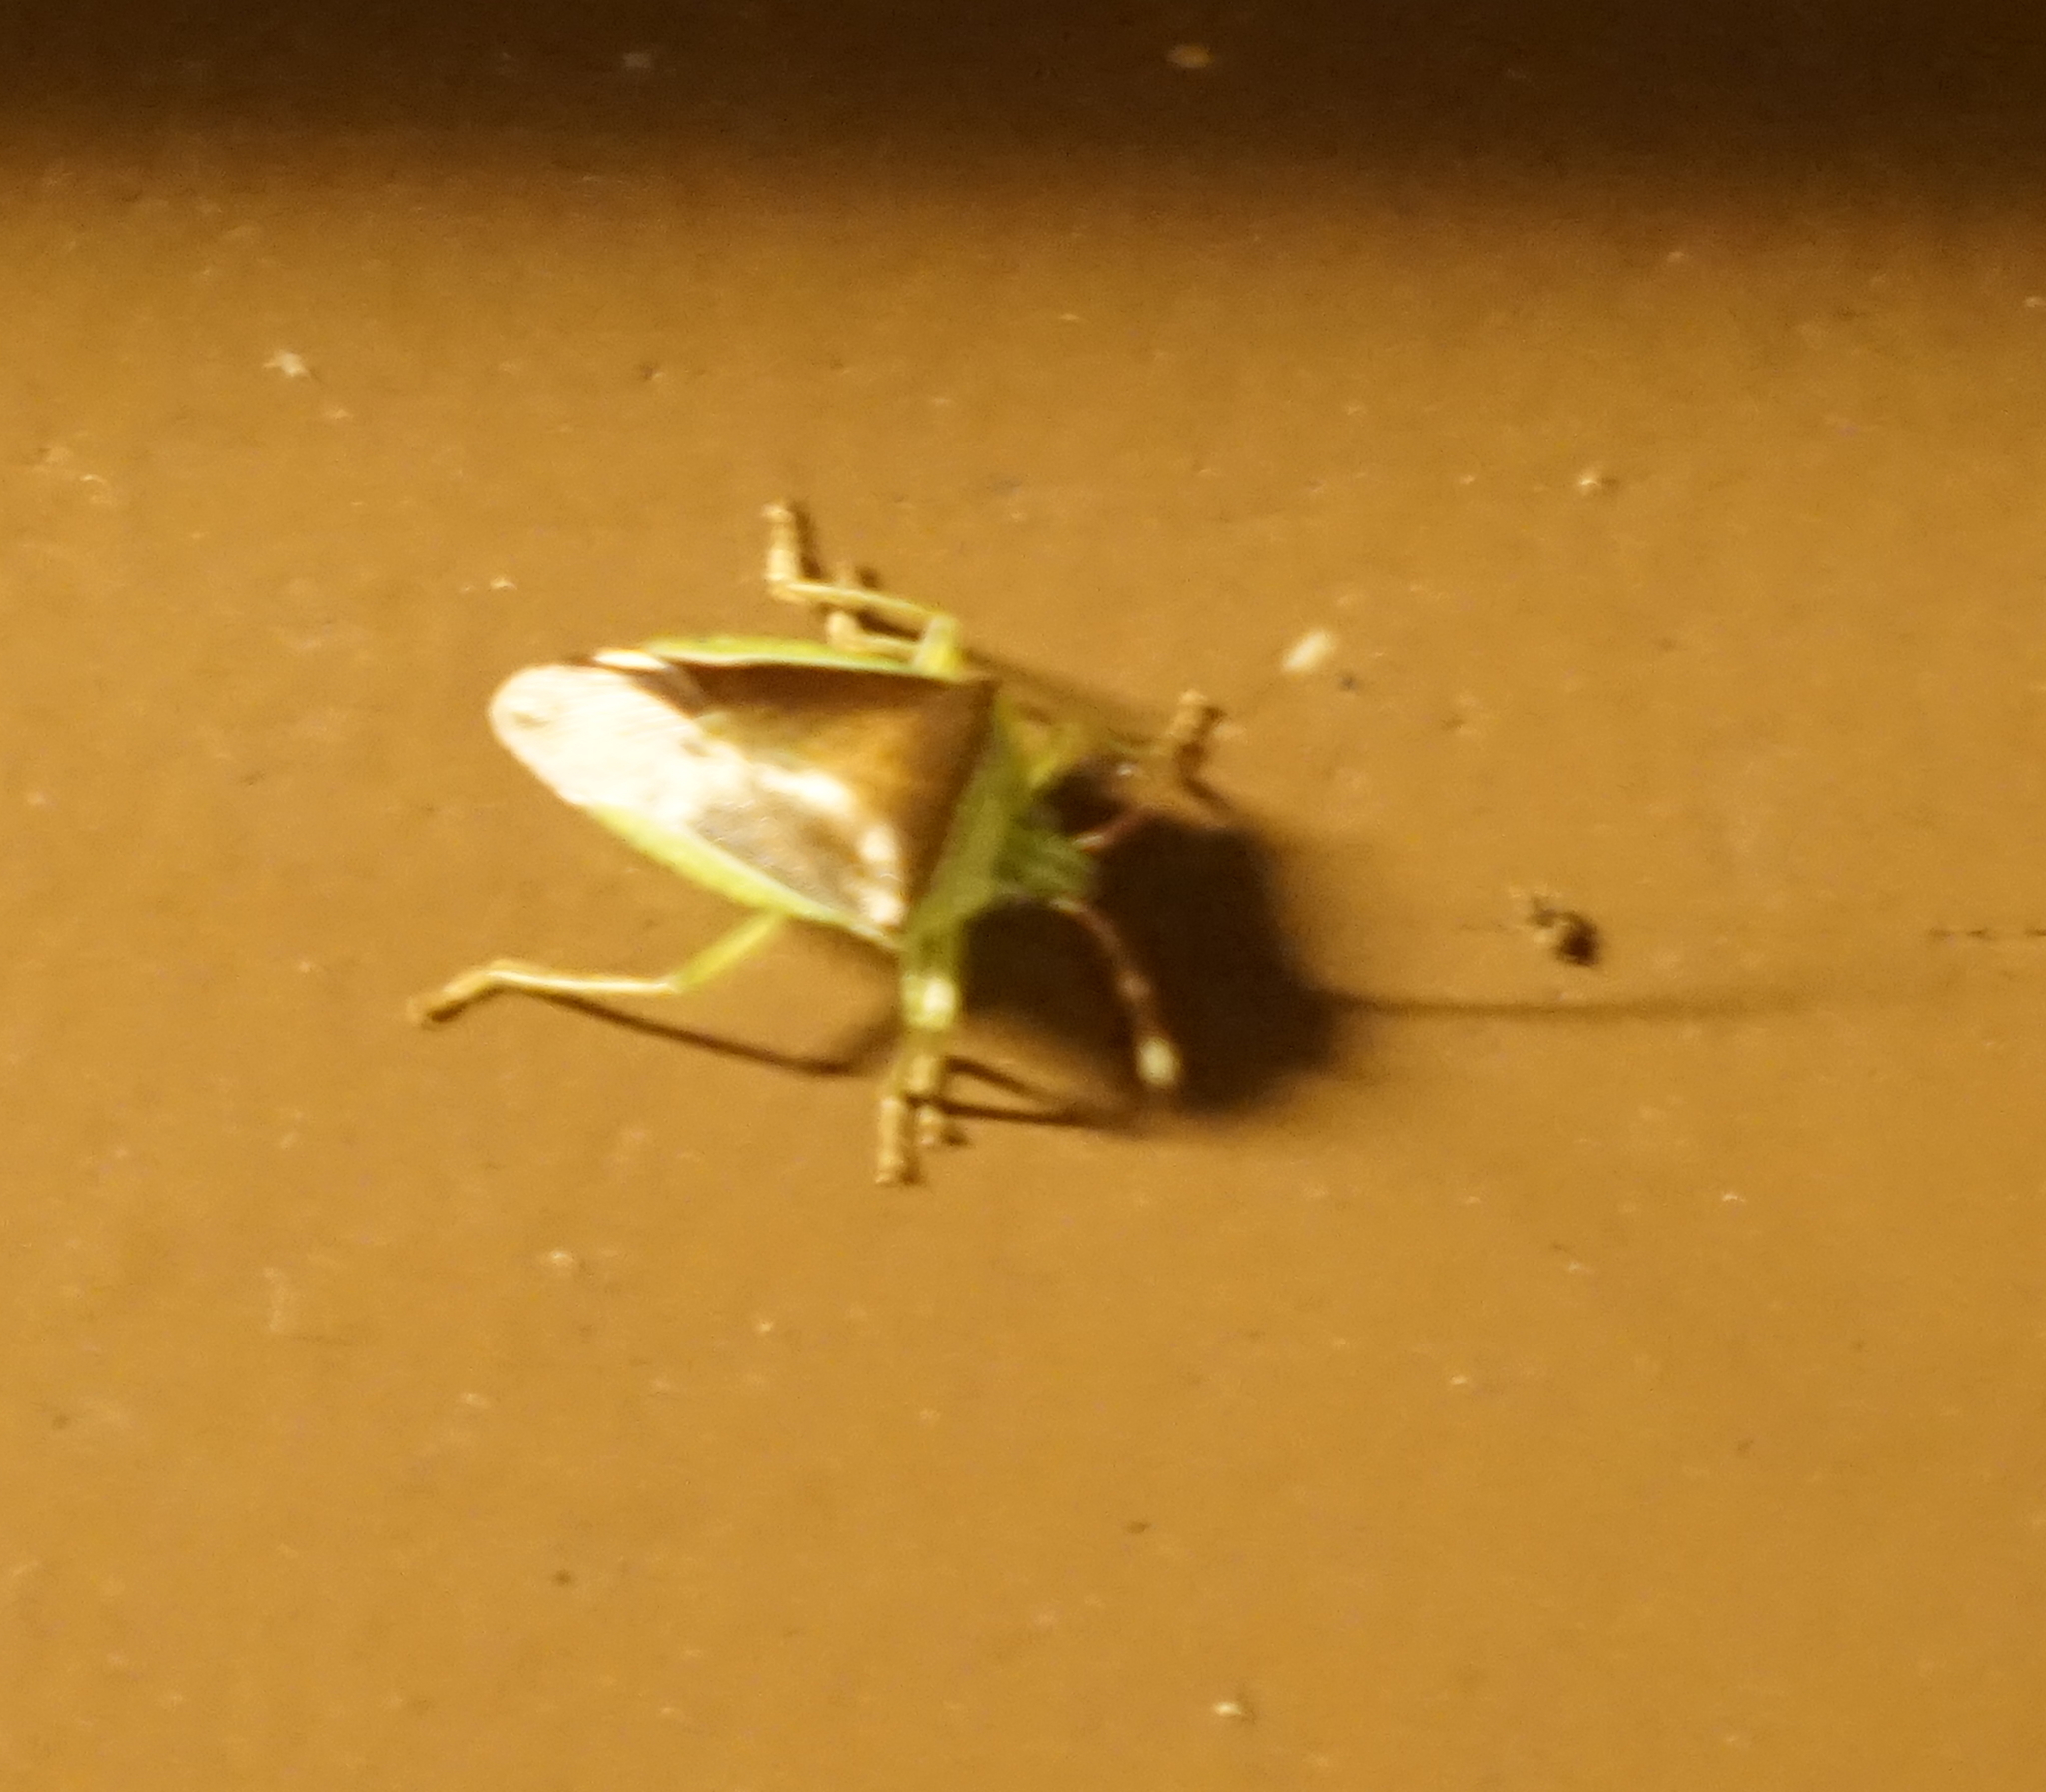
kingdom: Animalia
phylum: Arthropoda
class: Insecta
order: Hemiptera
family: Pentatomidae
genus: Neojurtina
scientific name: Neojurtina typica
